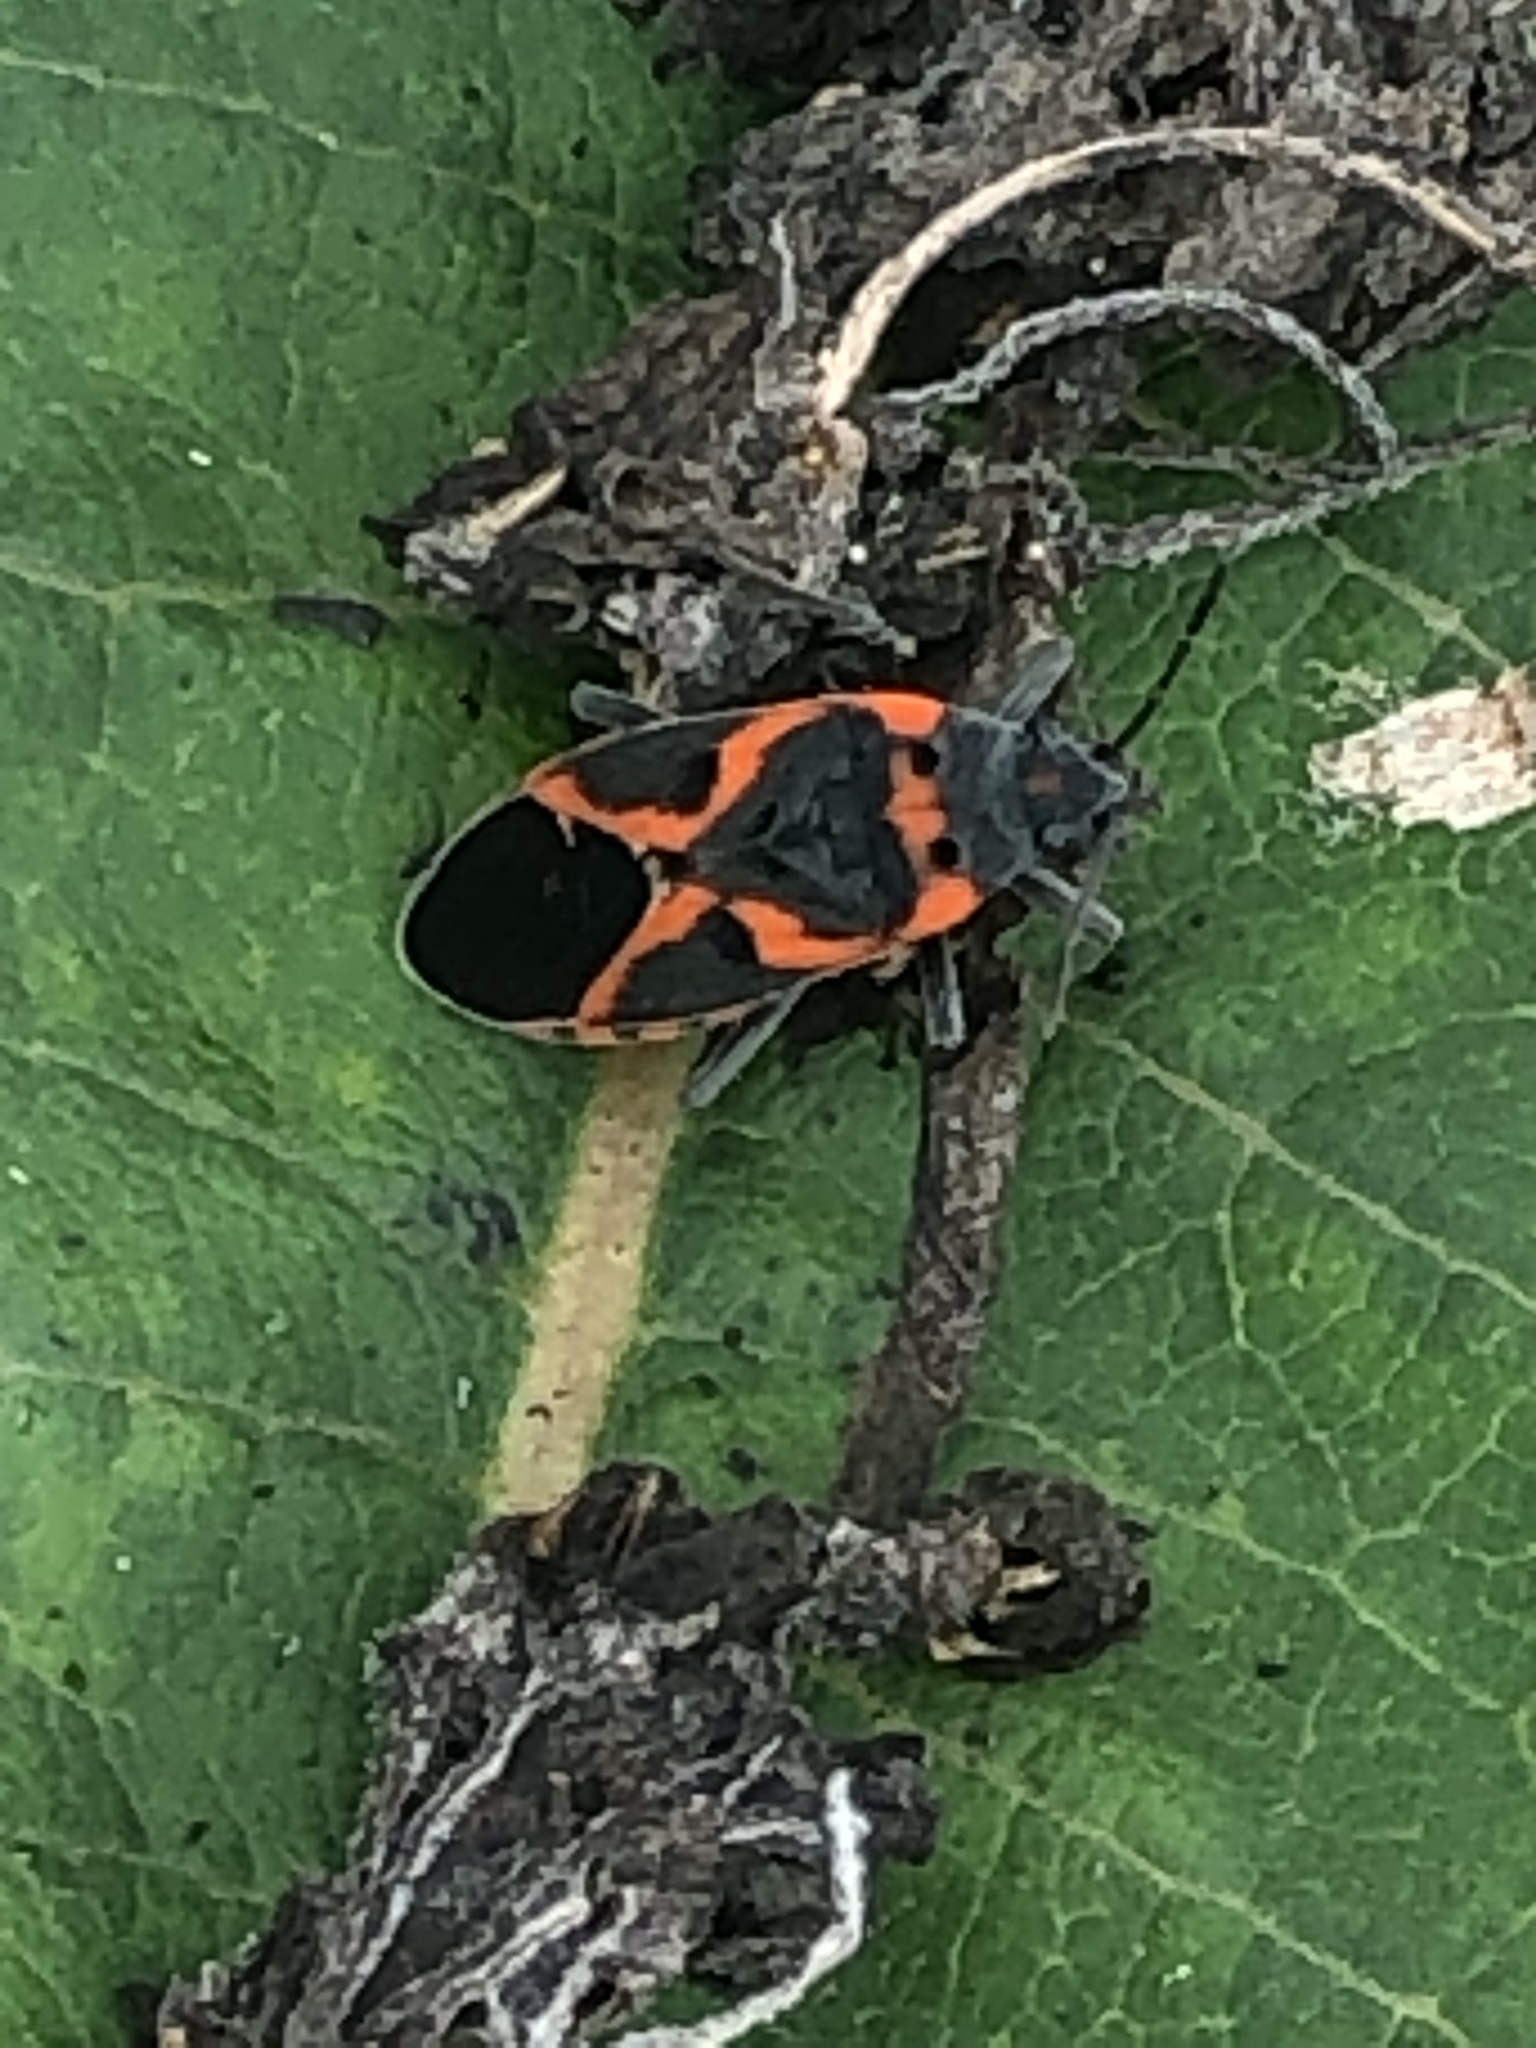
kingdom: Animalia
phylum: Arthropoda
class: Insecta
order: Hemiptera
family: Lygaeidae
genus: Lygaeus
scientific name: Lygaeus kalmii
